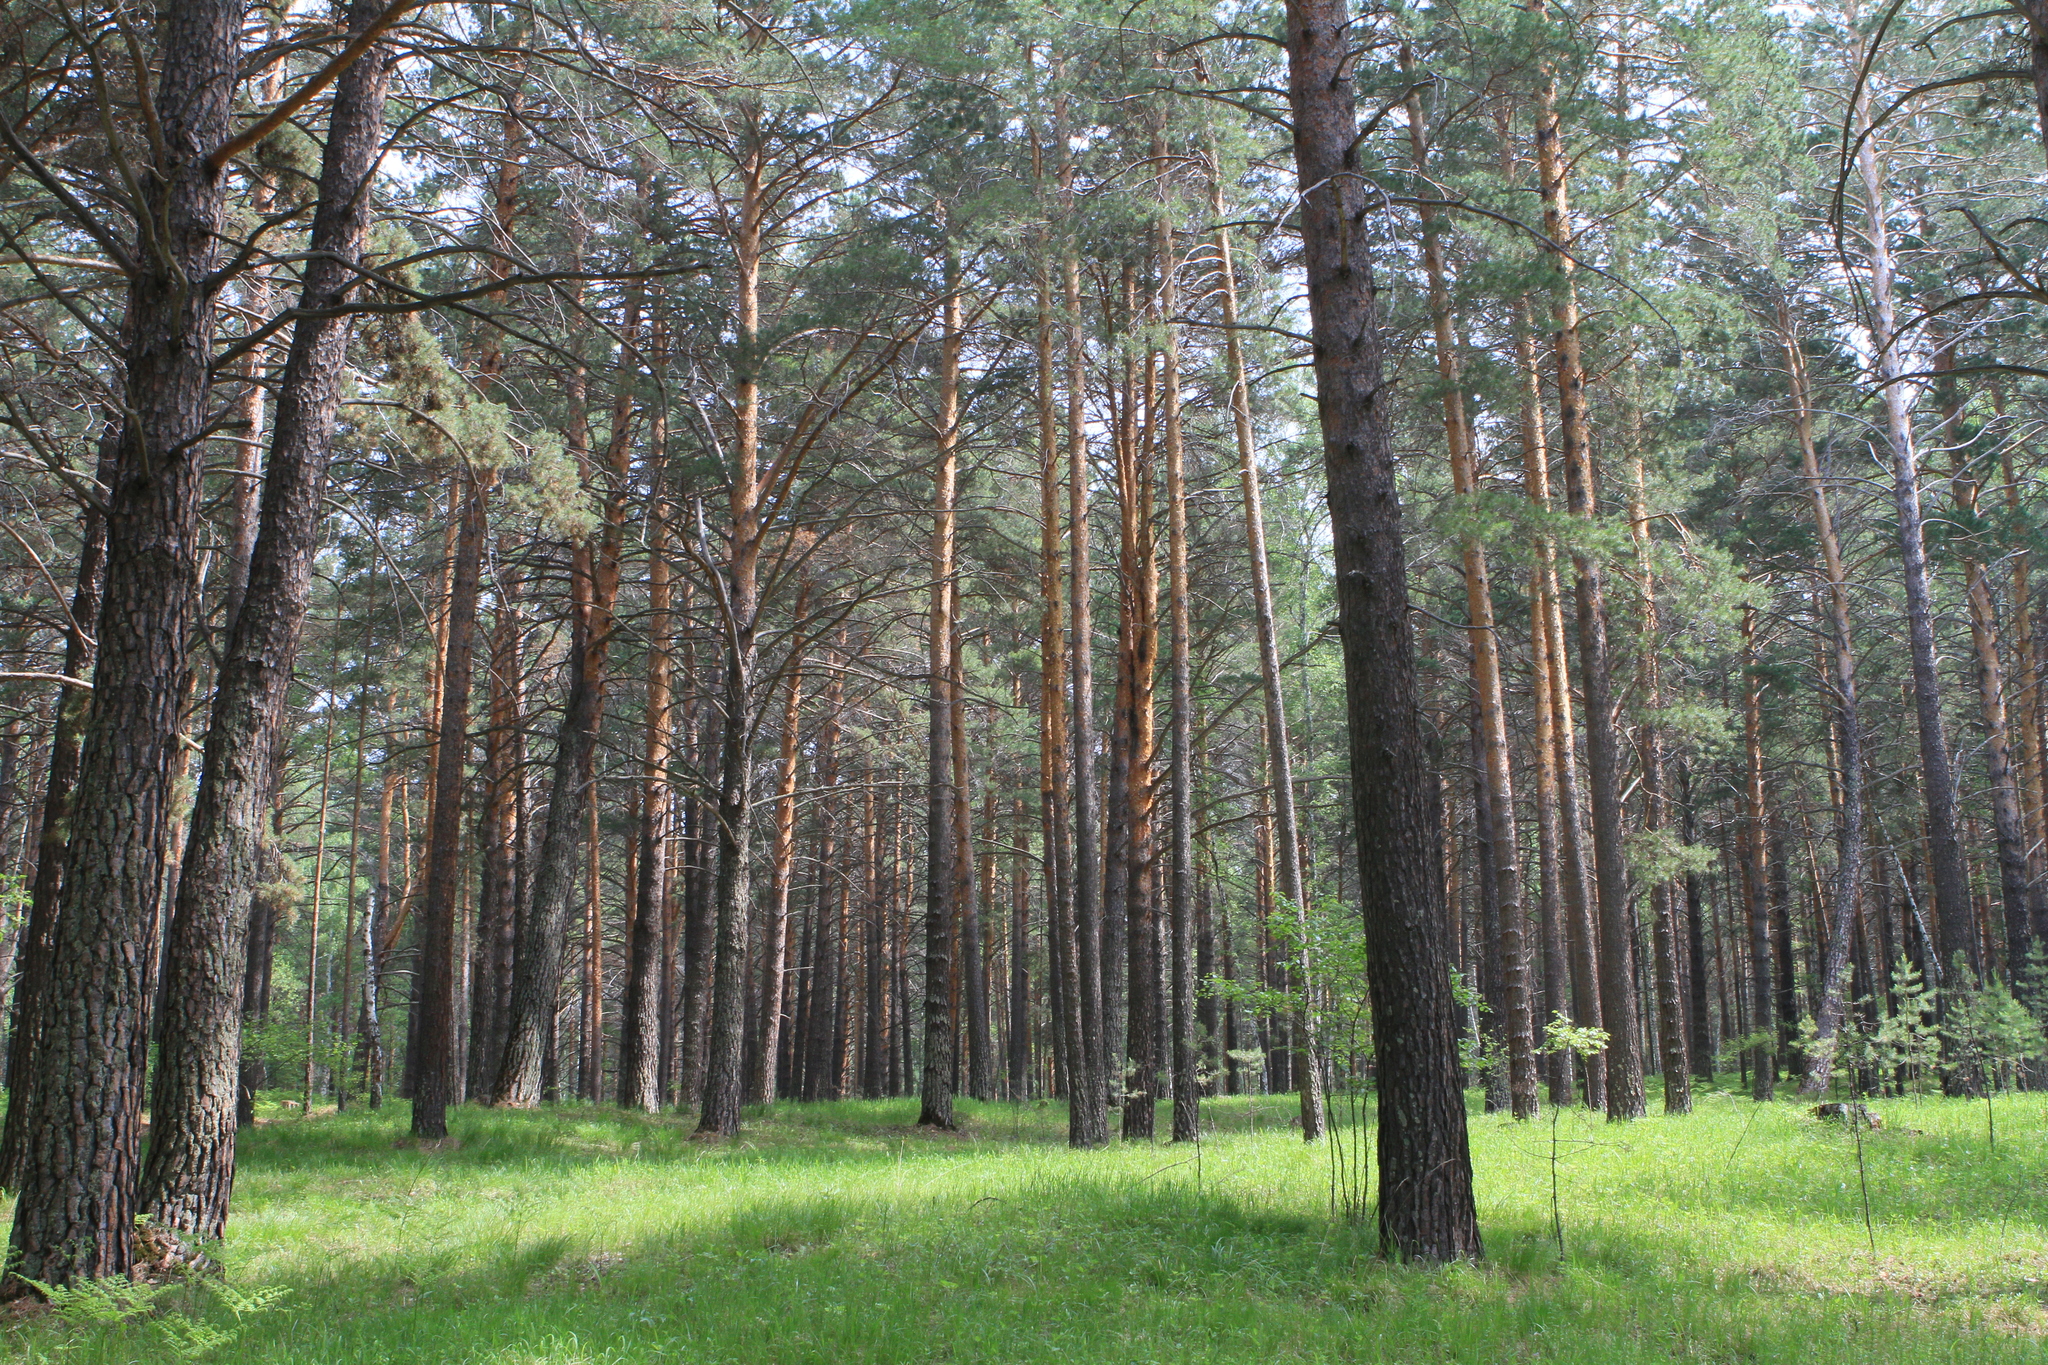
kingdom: Plantae
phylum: Tracheophyta
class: Pinopsida
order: Pinales
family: Pinaceae
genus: Pinus
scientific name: Pinus sylvestris
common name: Scots pine
